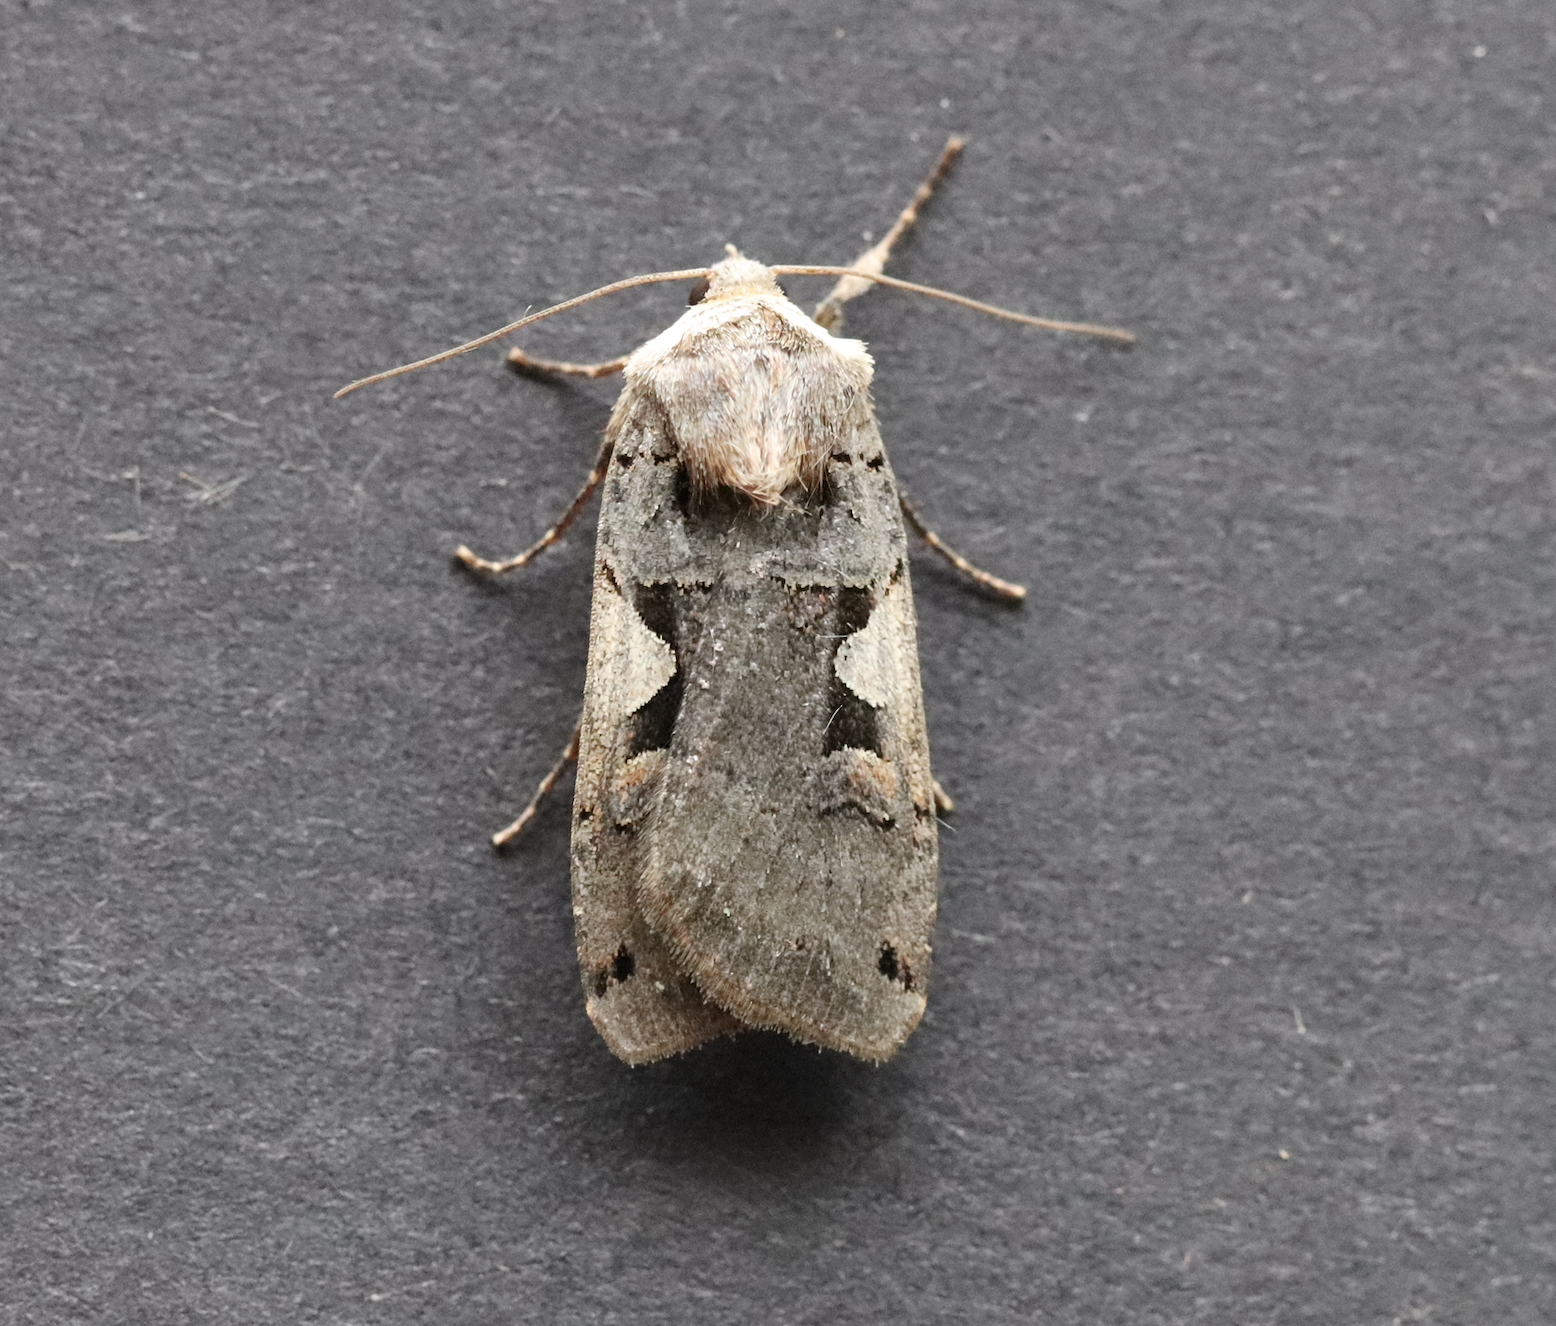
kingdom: Animalia
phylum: Arthropoda
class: Insecta
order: Lepidoptera
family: Noctuidae
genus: Xestia
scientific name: Xestia c-nigrum
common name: Setaceous hebrew character
